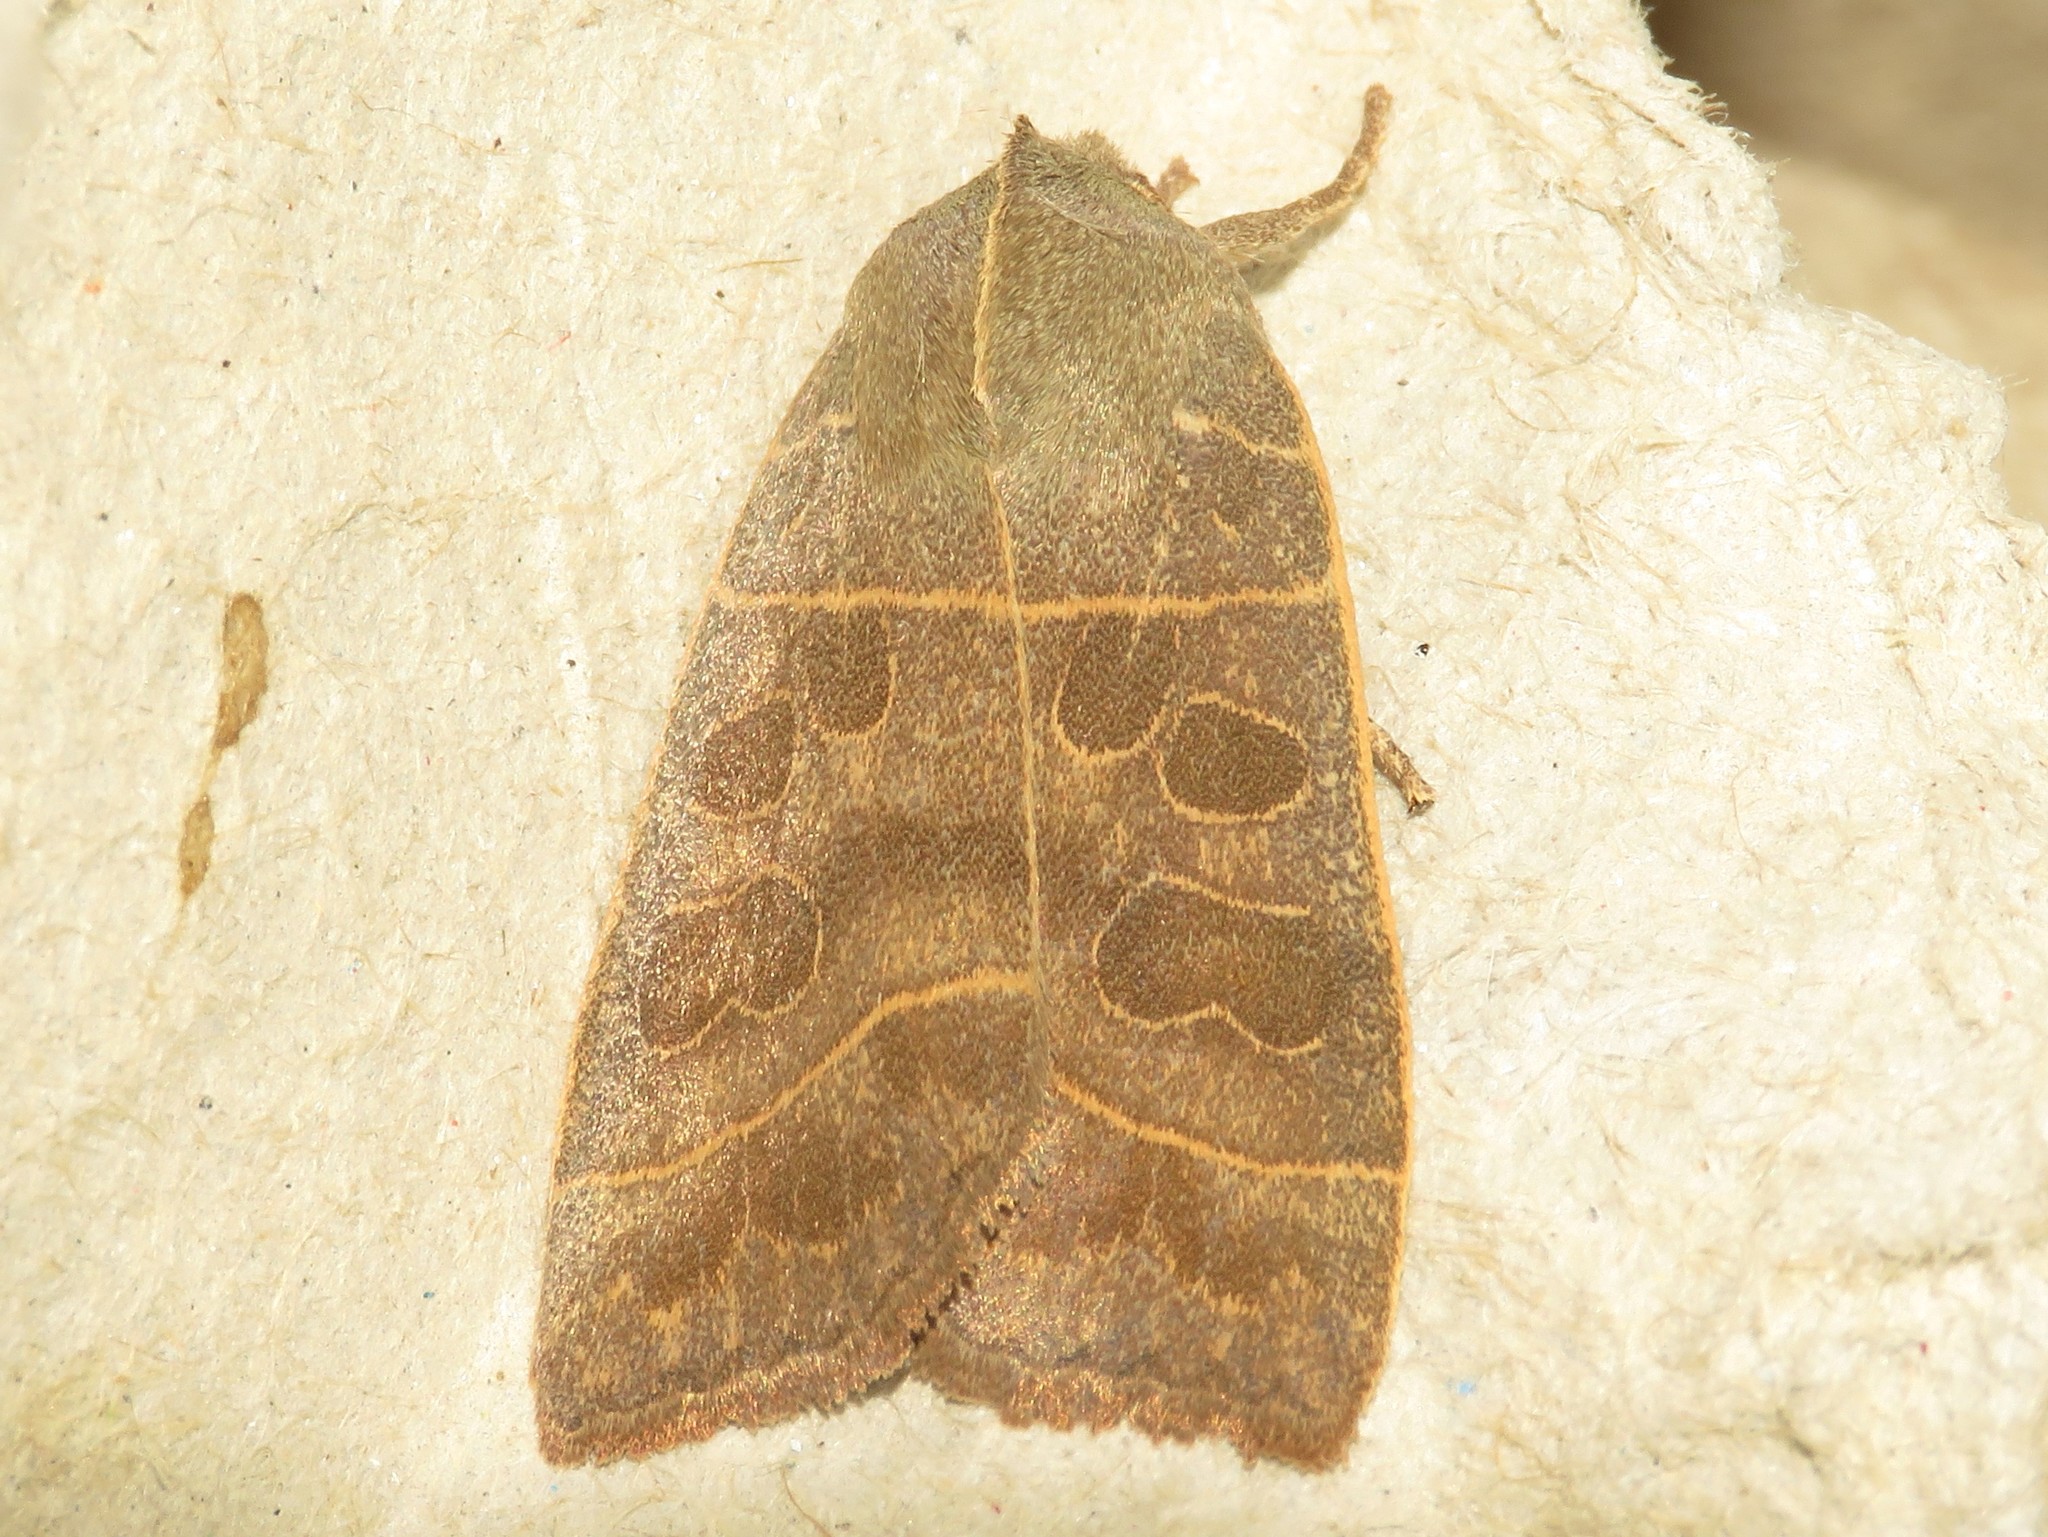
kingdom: Animalia
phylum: Arthropoda
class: Insecta
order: Lepidoptera
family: Noctuidae
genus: Ipimorpha
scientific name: Ipimorpha pleonectusa
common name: Even-lined sallow
